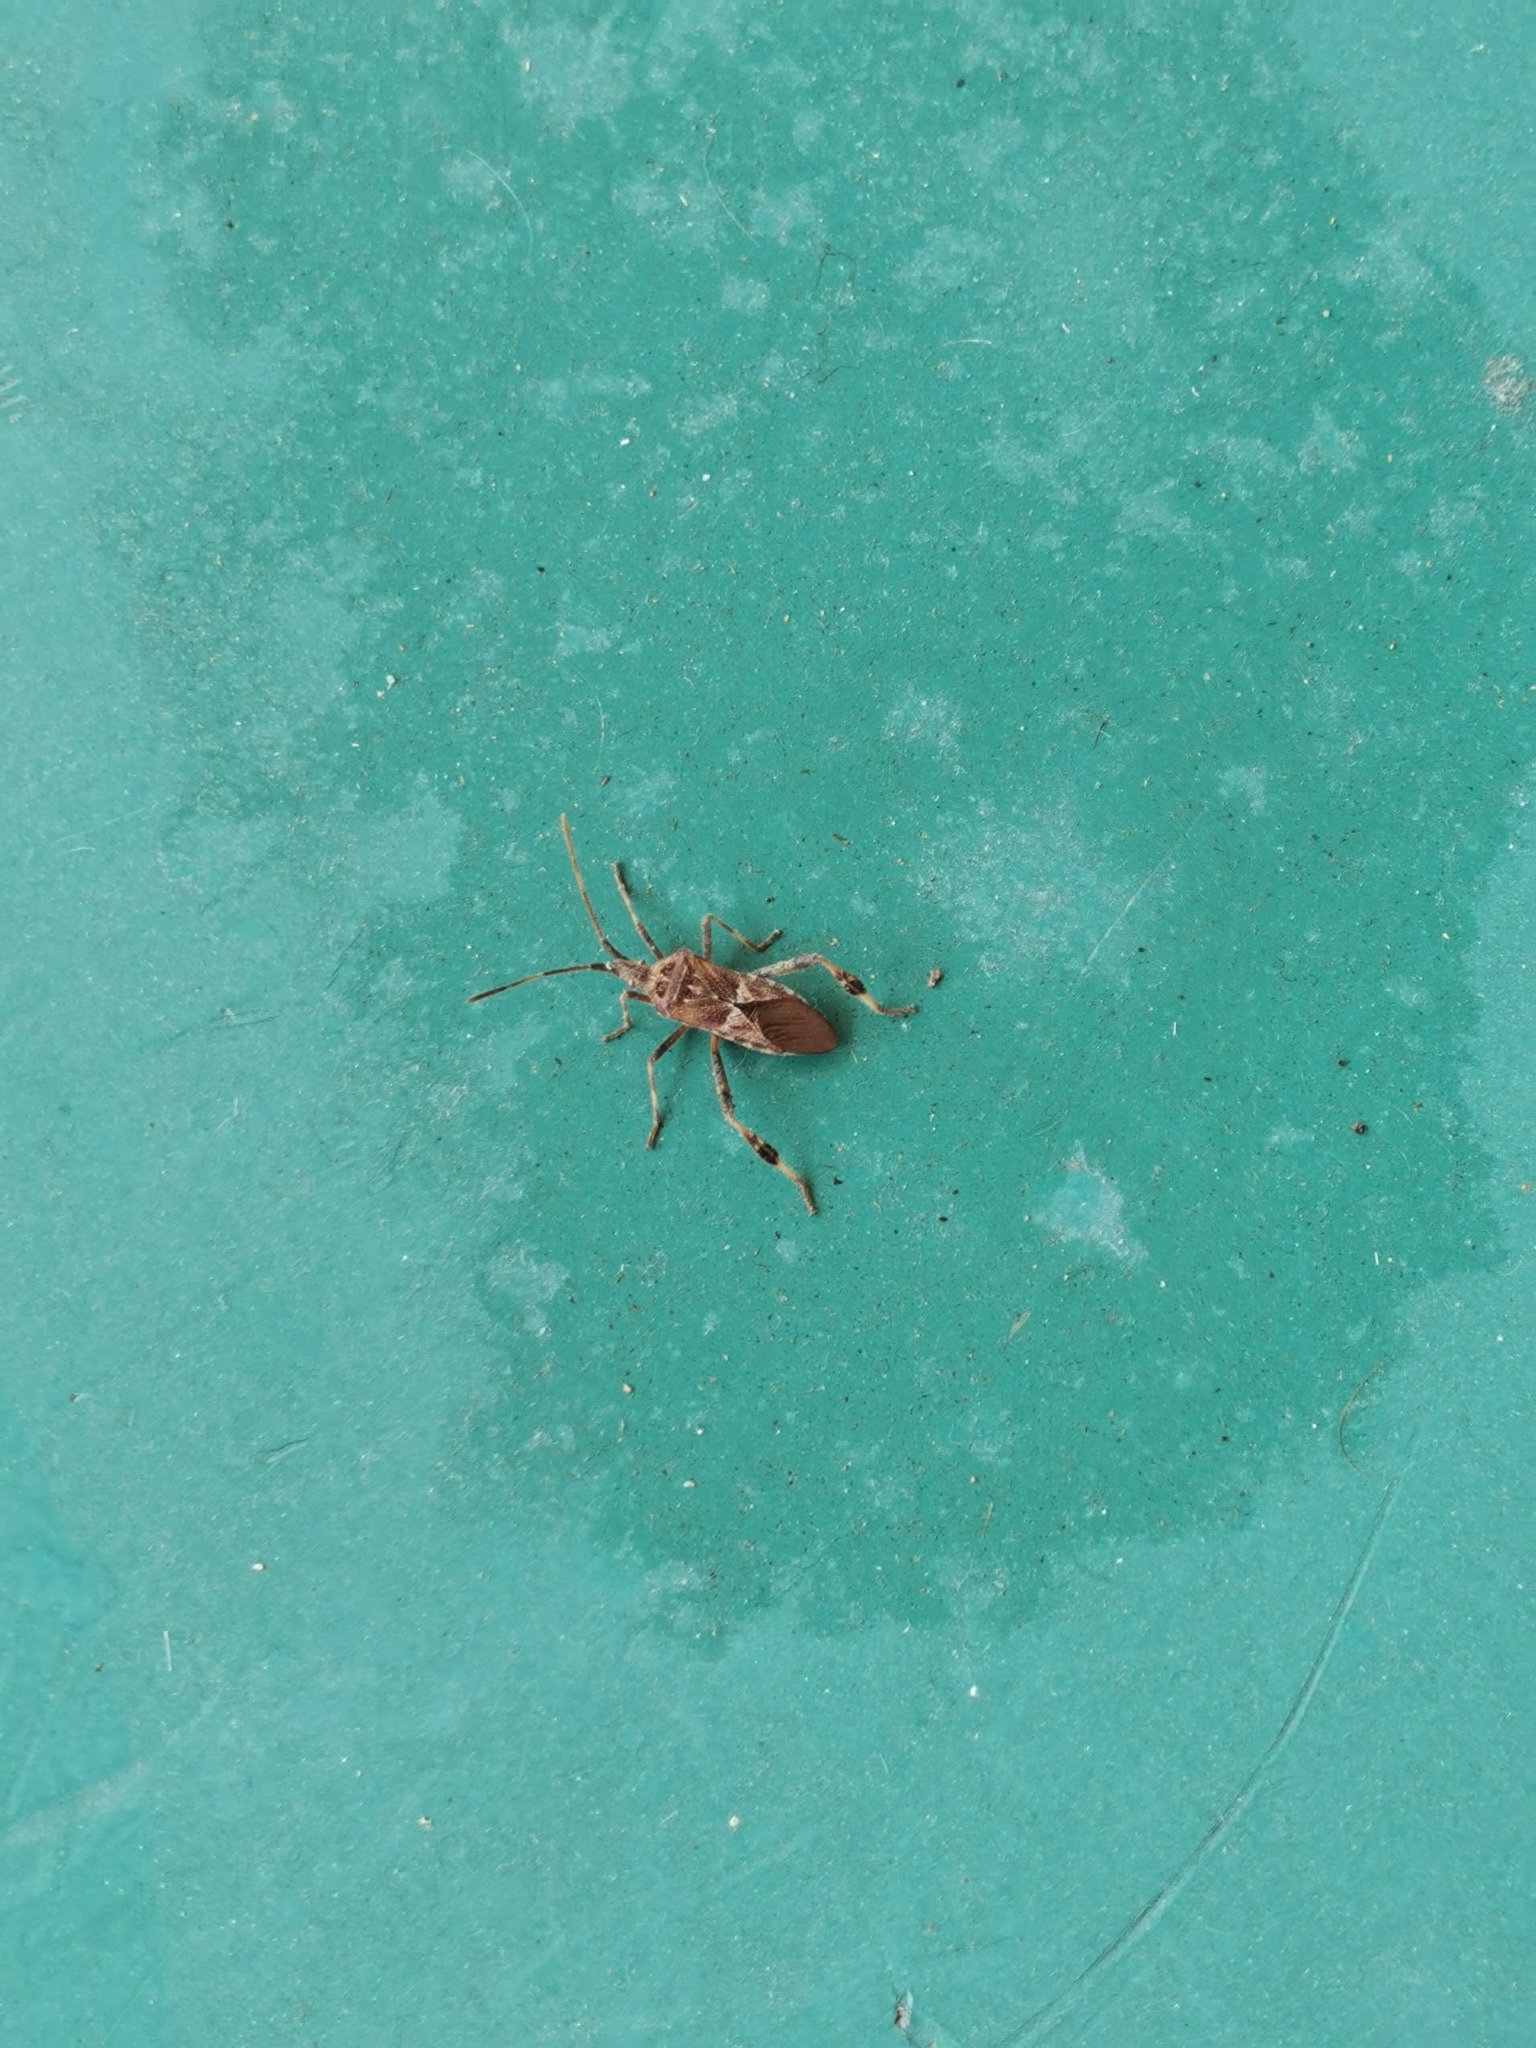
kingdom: Animalia
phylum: Arthropoda
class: Insecta
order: Hemiptera
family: Coreidae
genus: Leptoglossus
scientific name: Leptoglossus occidentalis
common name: Western conifer-seed bug
